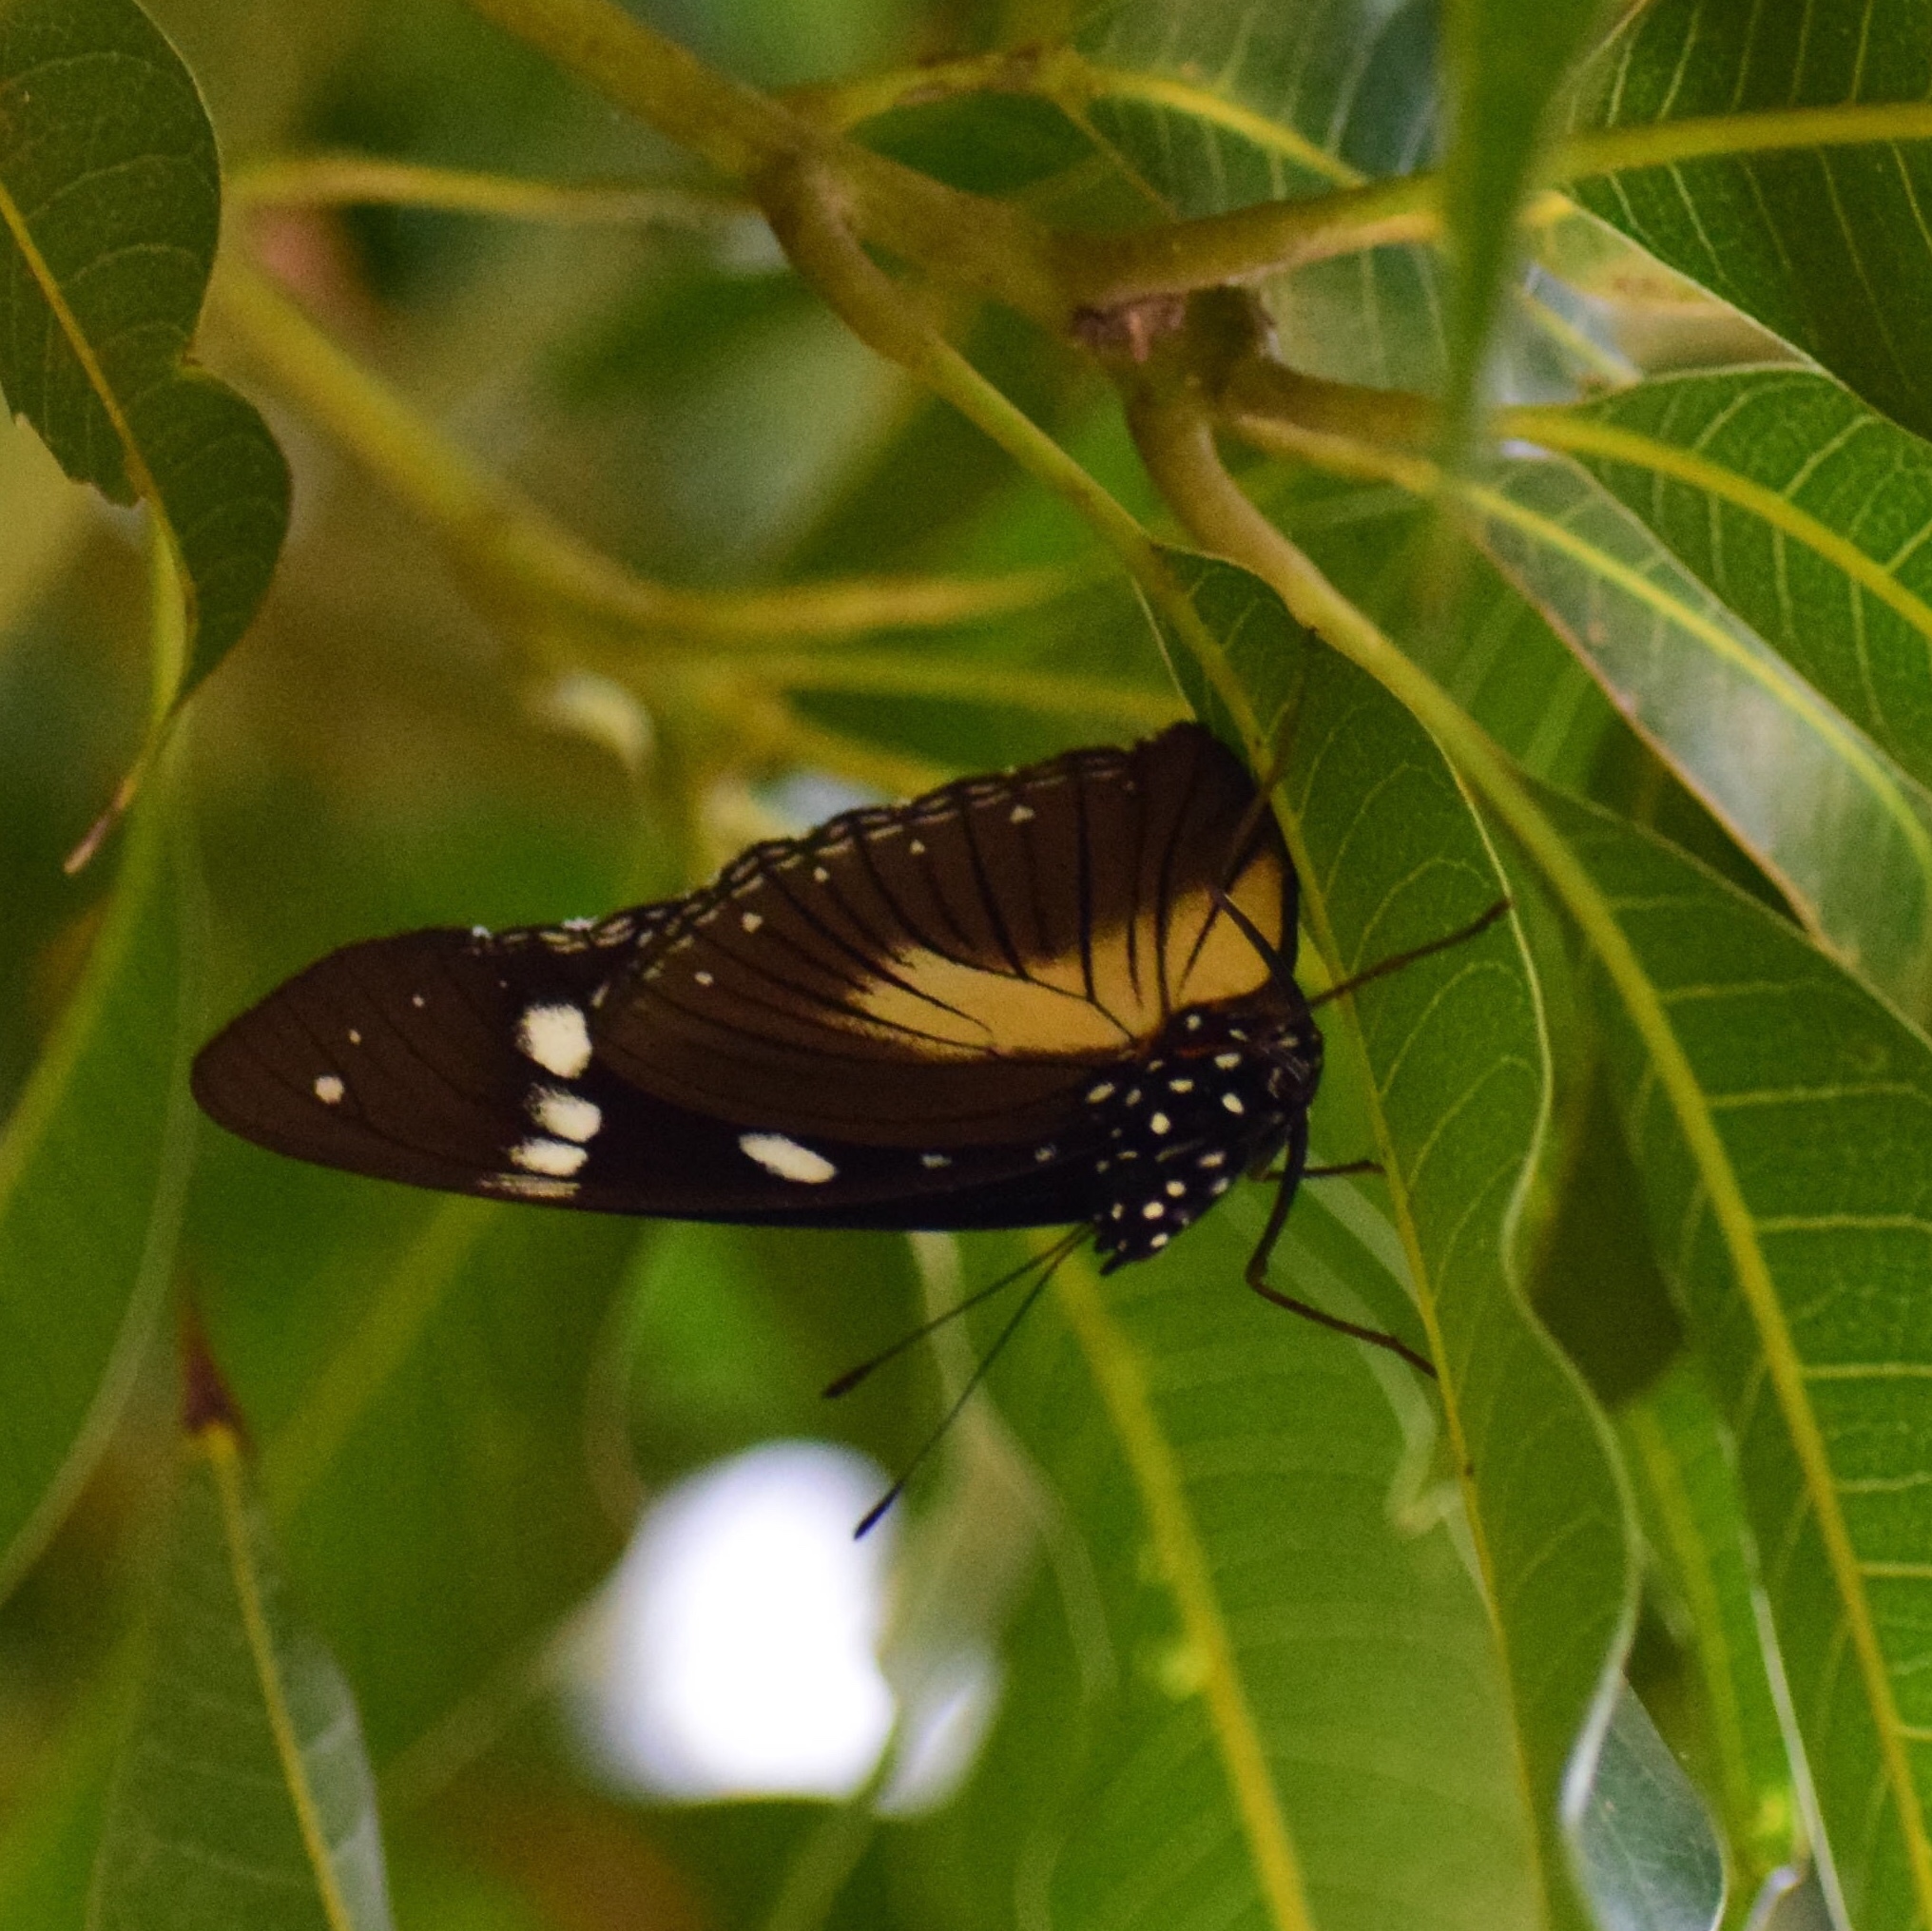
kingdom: Animalia
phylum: Arthropoda
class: Insecta
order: Lepidoptera
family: Nymphalidae
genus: Hypolimnas
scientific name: Hypolimnas dubius
